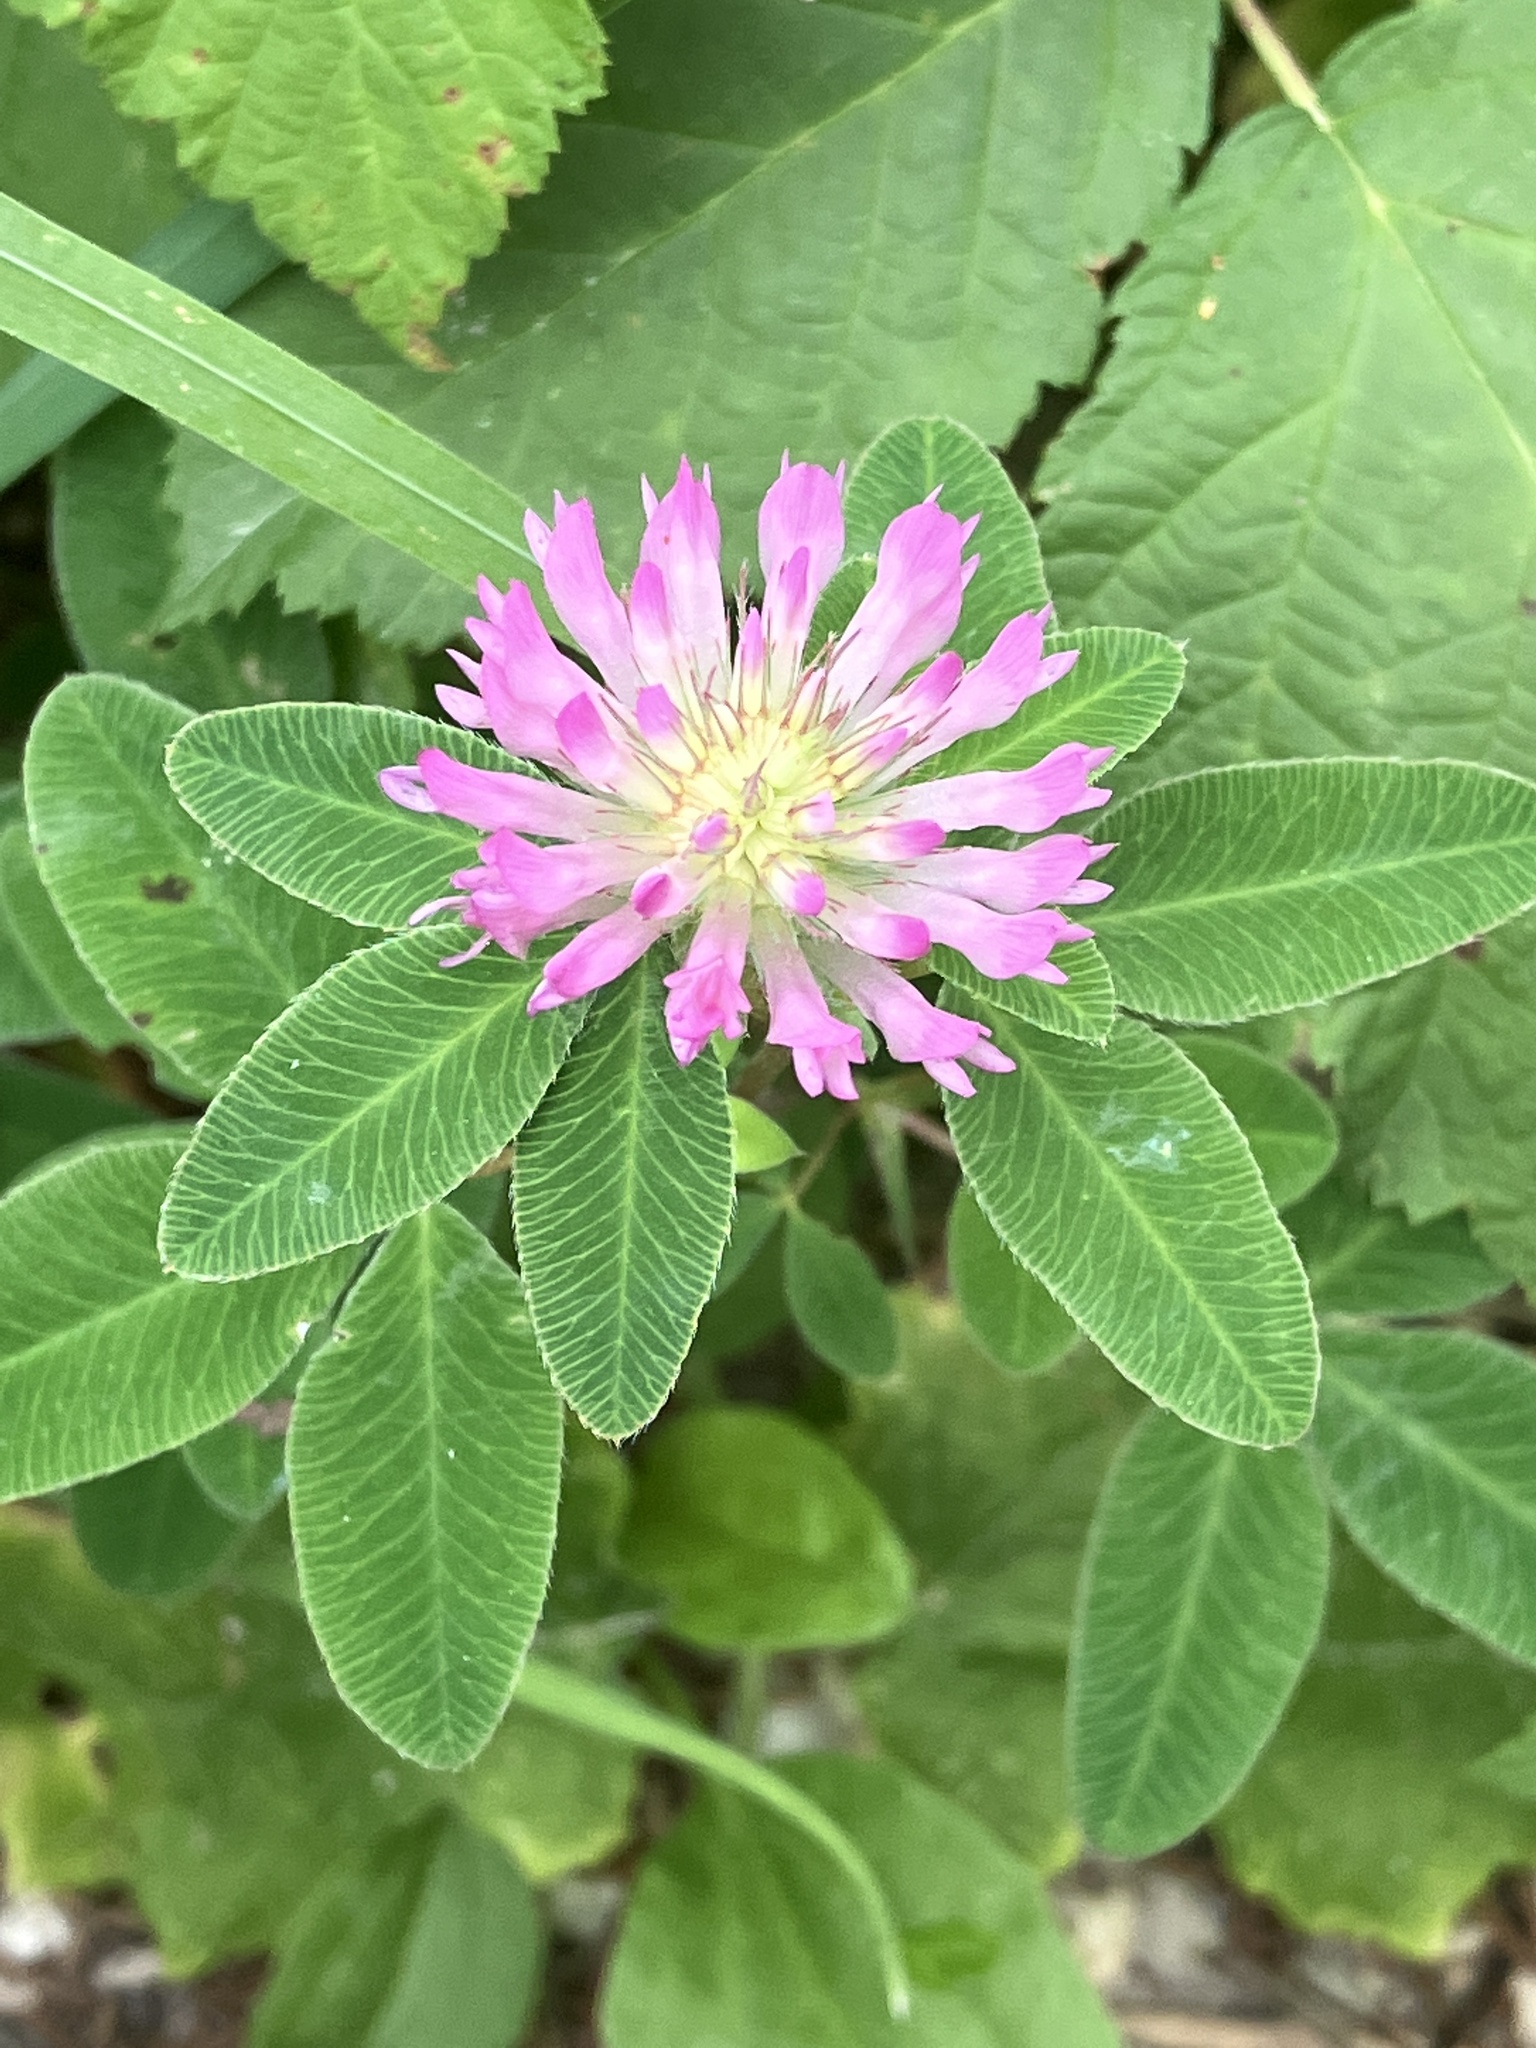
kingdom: Plantae
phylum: Tracheophyta
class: Magnoliopsida
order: Fabales
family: Fabaceae
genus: Trifolium
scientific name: Trifolium medium
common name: Zigzag clover
